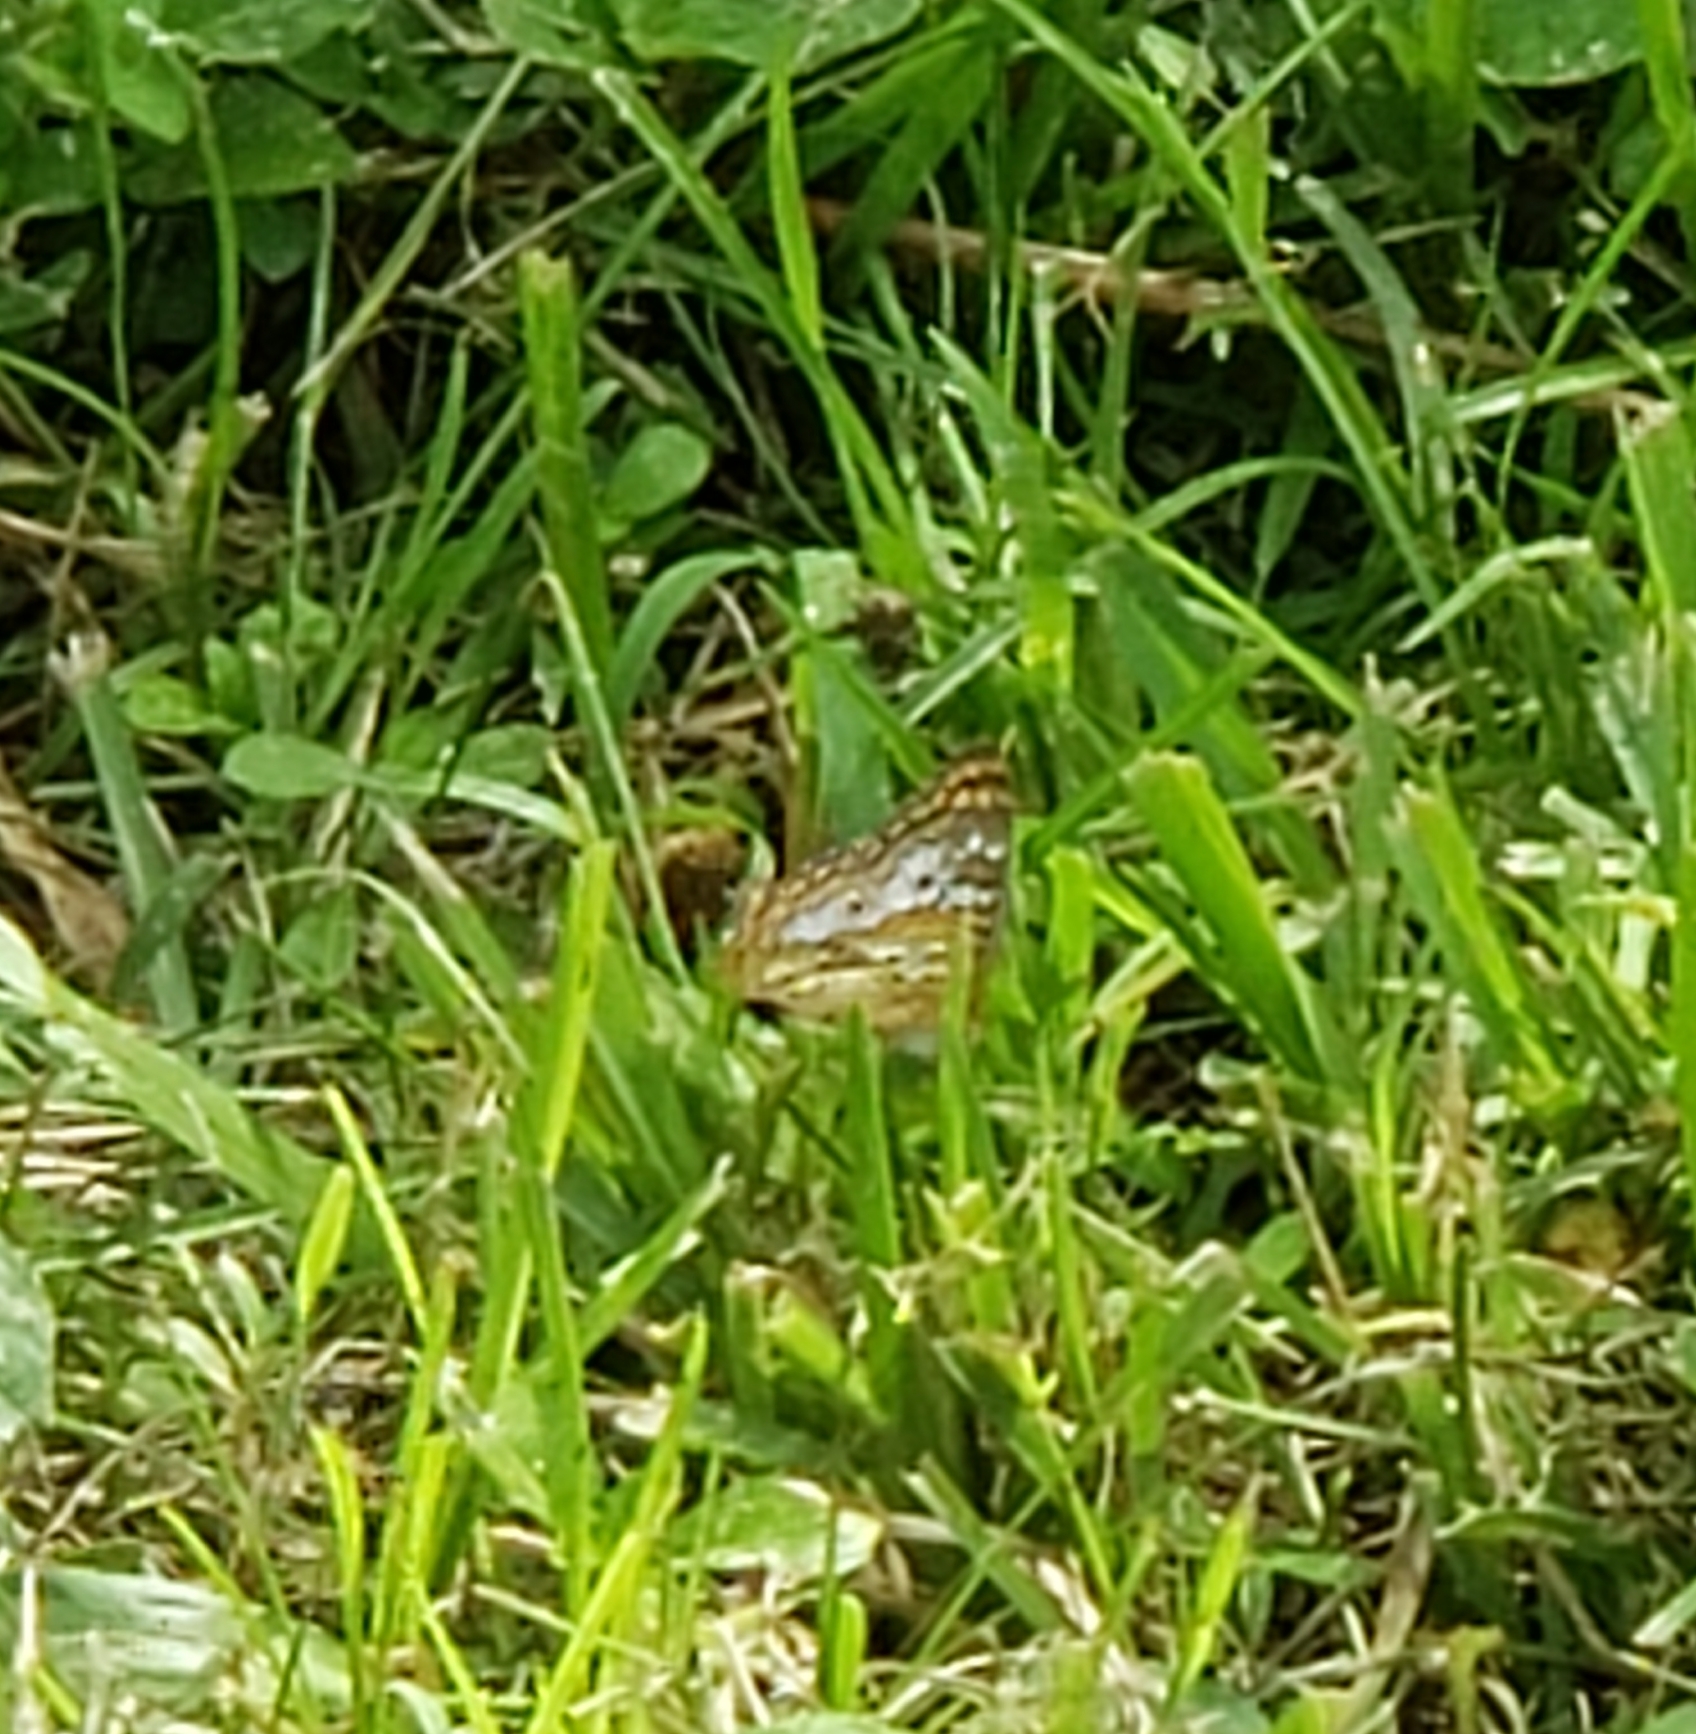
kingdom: Animalia
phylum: Arthropoda
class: Insecta
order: Lepidoptera
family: Nymphalidae
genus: Anartia
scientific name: Anartia jatrophae
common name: White peacock
